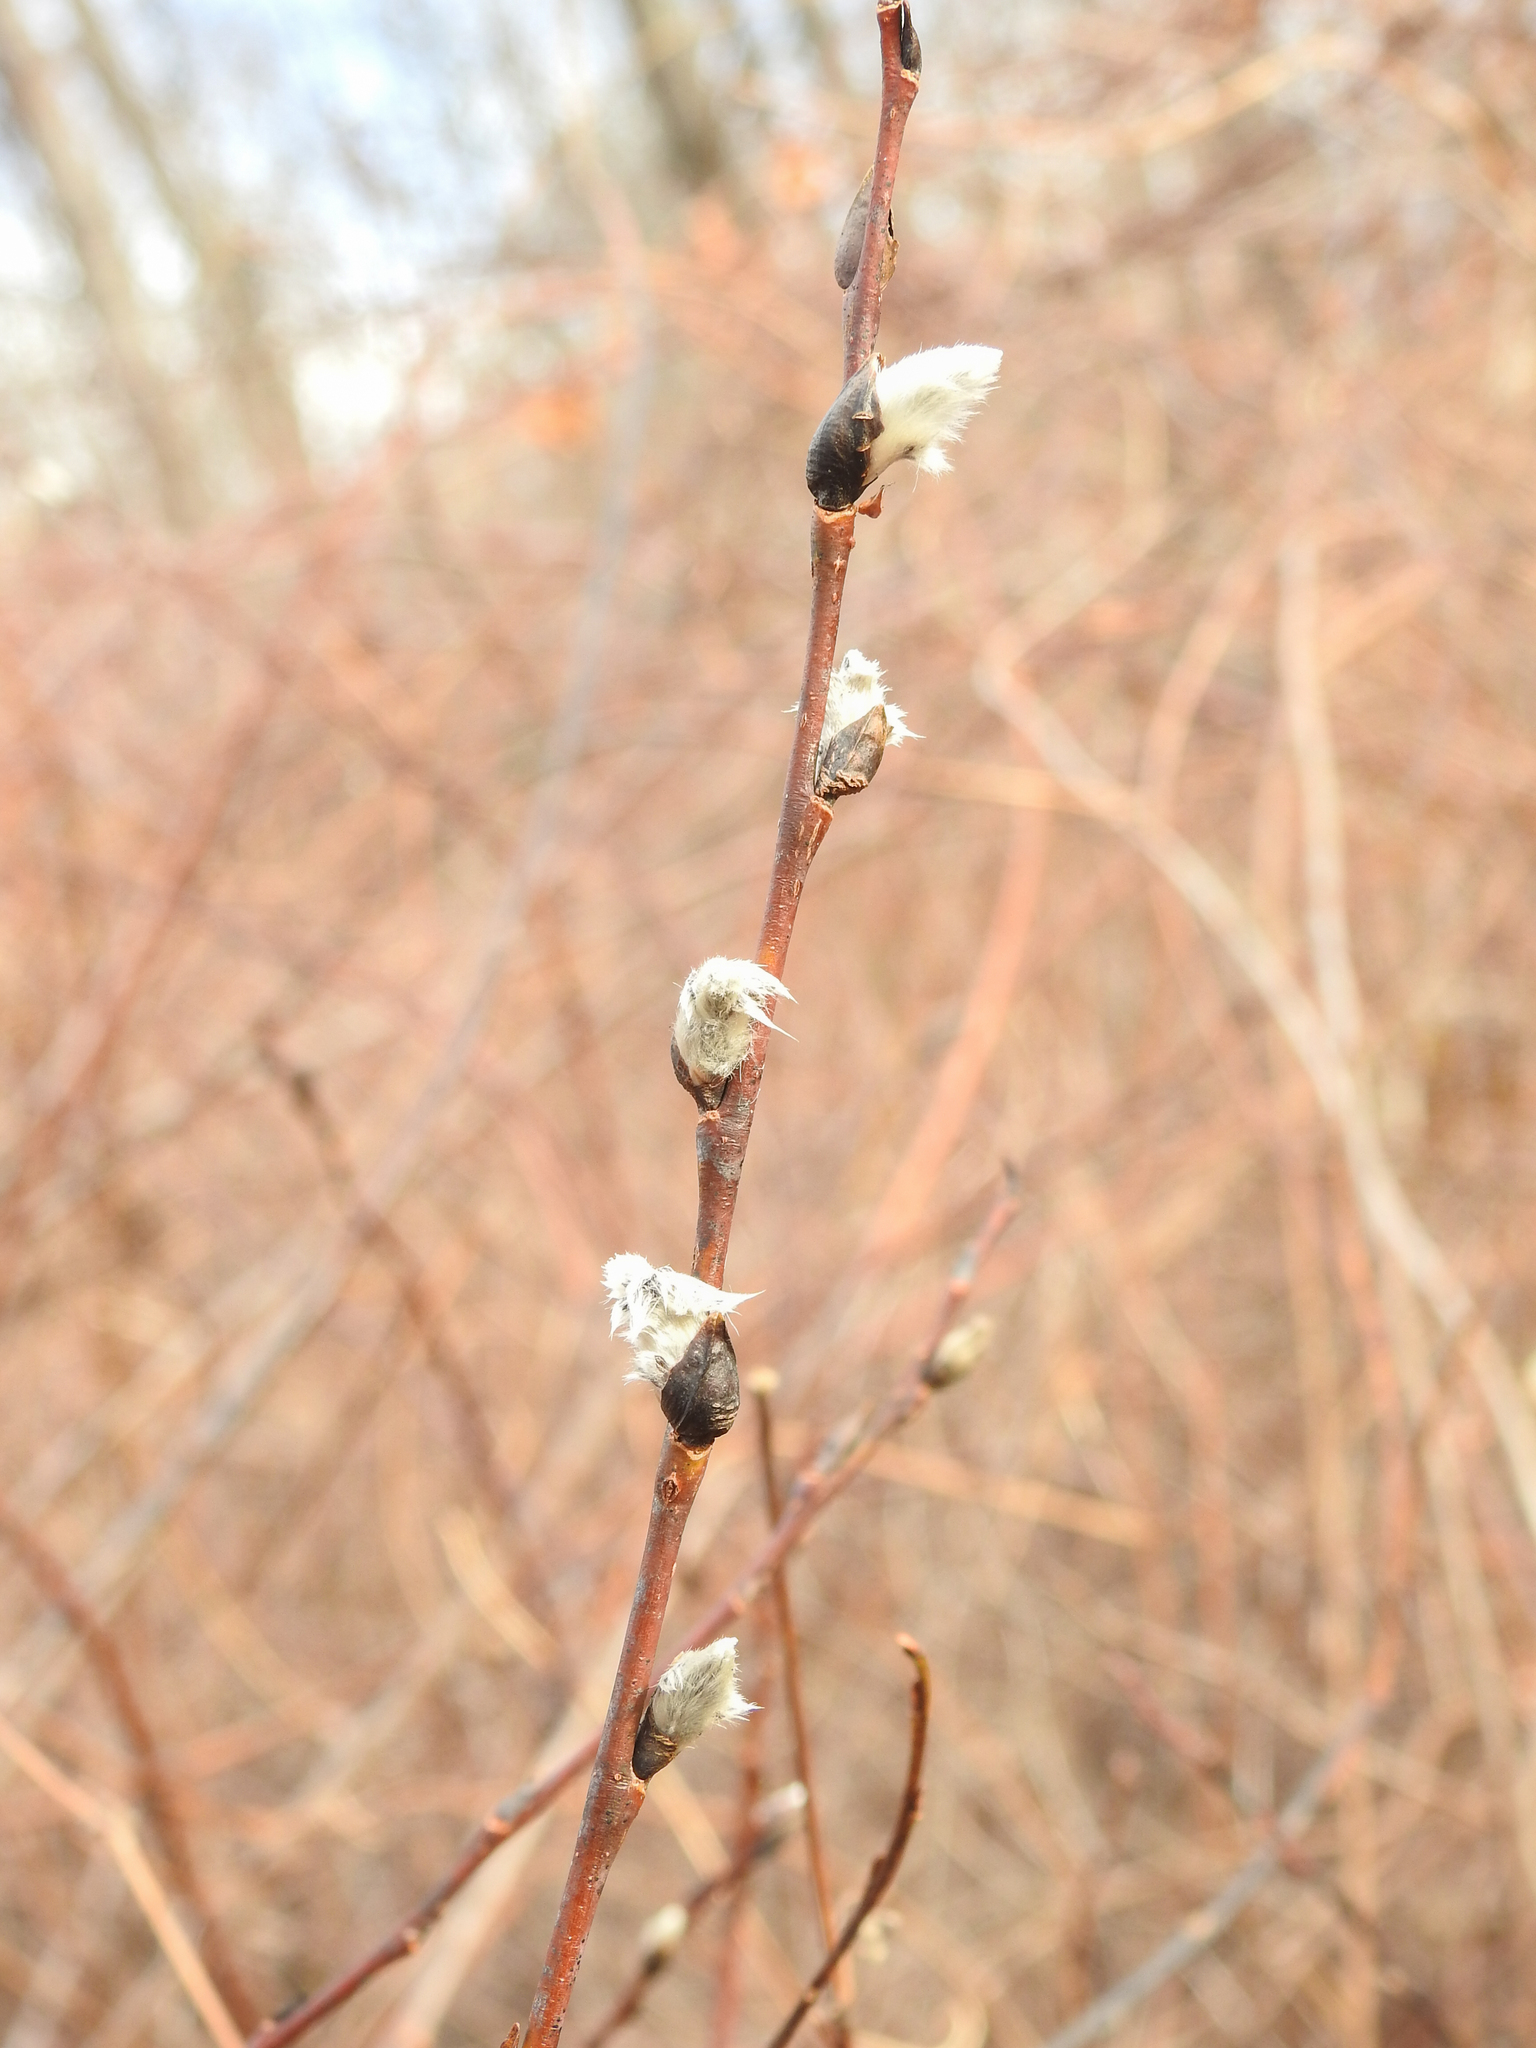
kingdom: Plantae
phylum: Tracheophyta
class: Magnoliopsida
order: Malpighiales
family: Salicaceae
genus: Salix
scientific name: Salix discolor
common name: Glaucous willow
